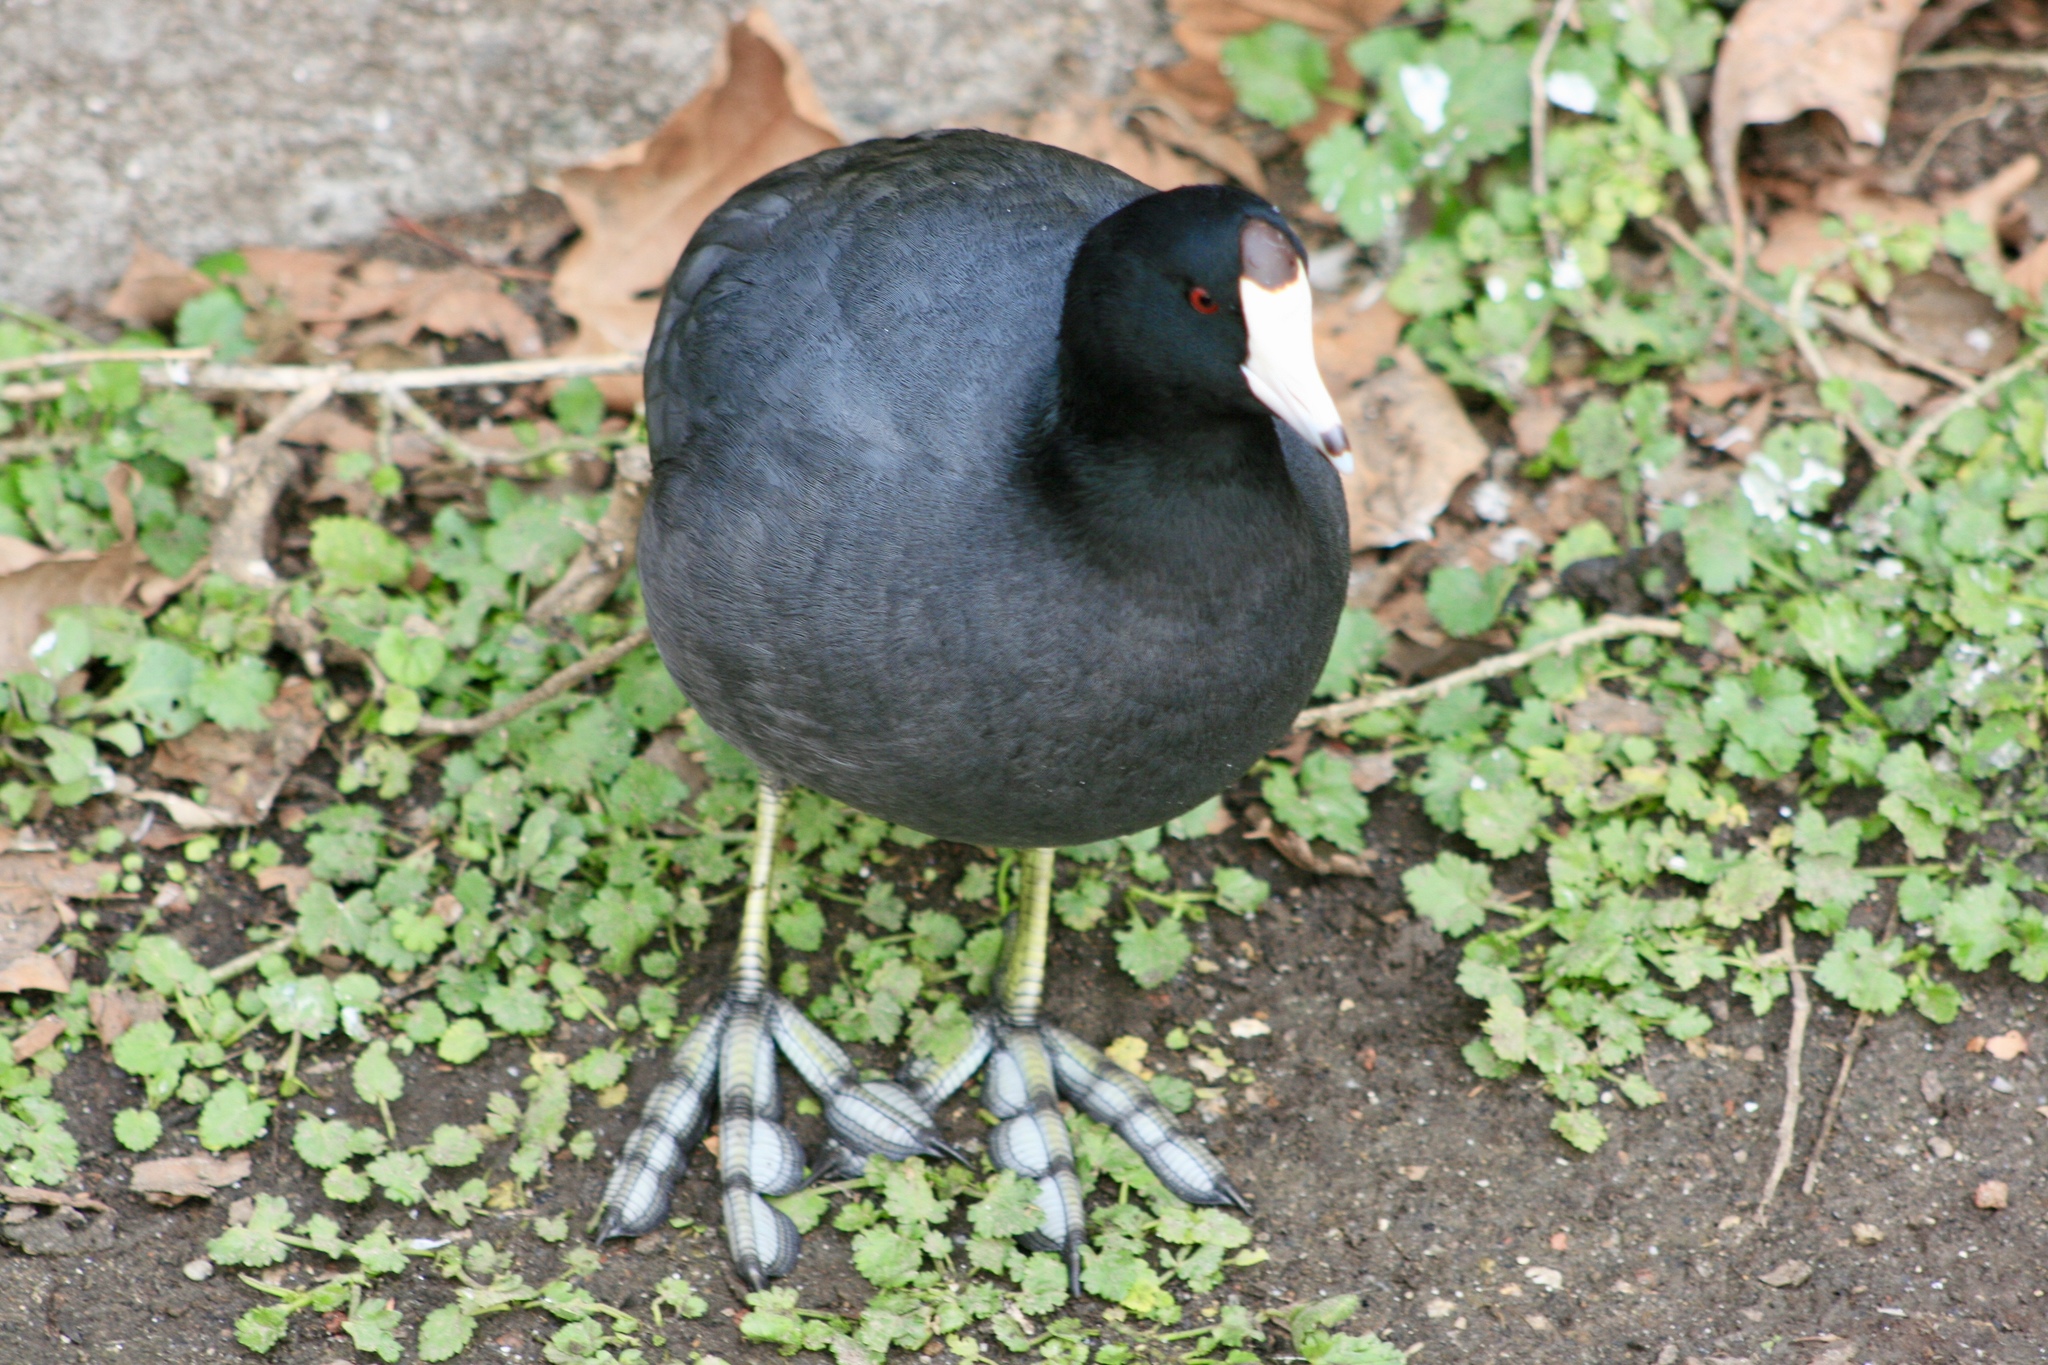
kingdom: Animalia
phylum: Chordata
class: Aves
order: Gruiformes
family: Rallidae
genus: Fulica
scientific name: Fulica americana
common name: American coot
